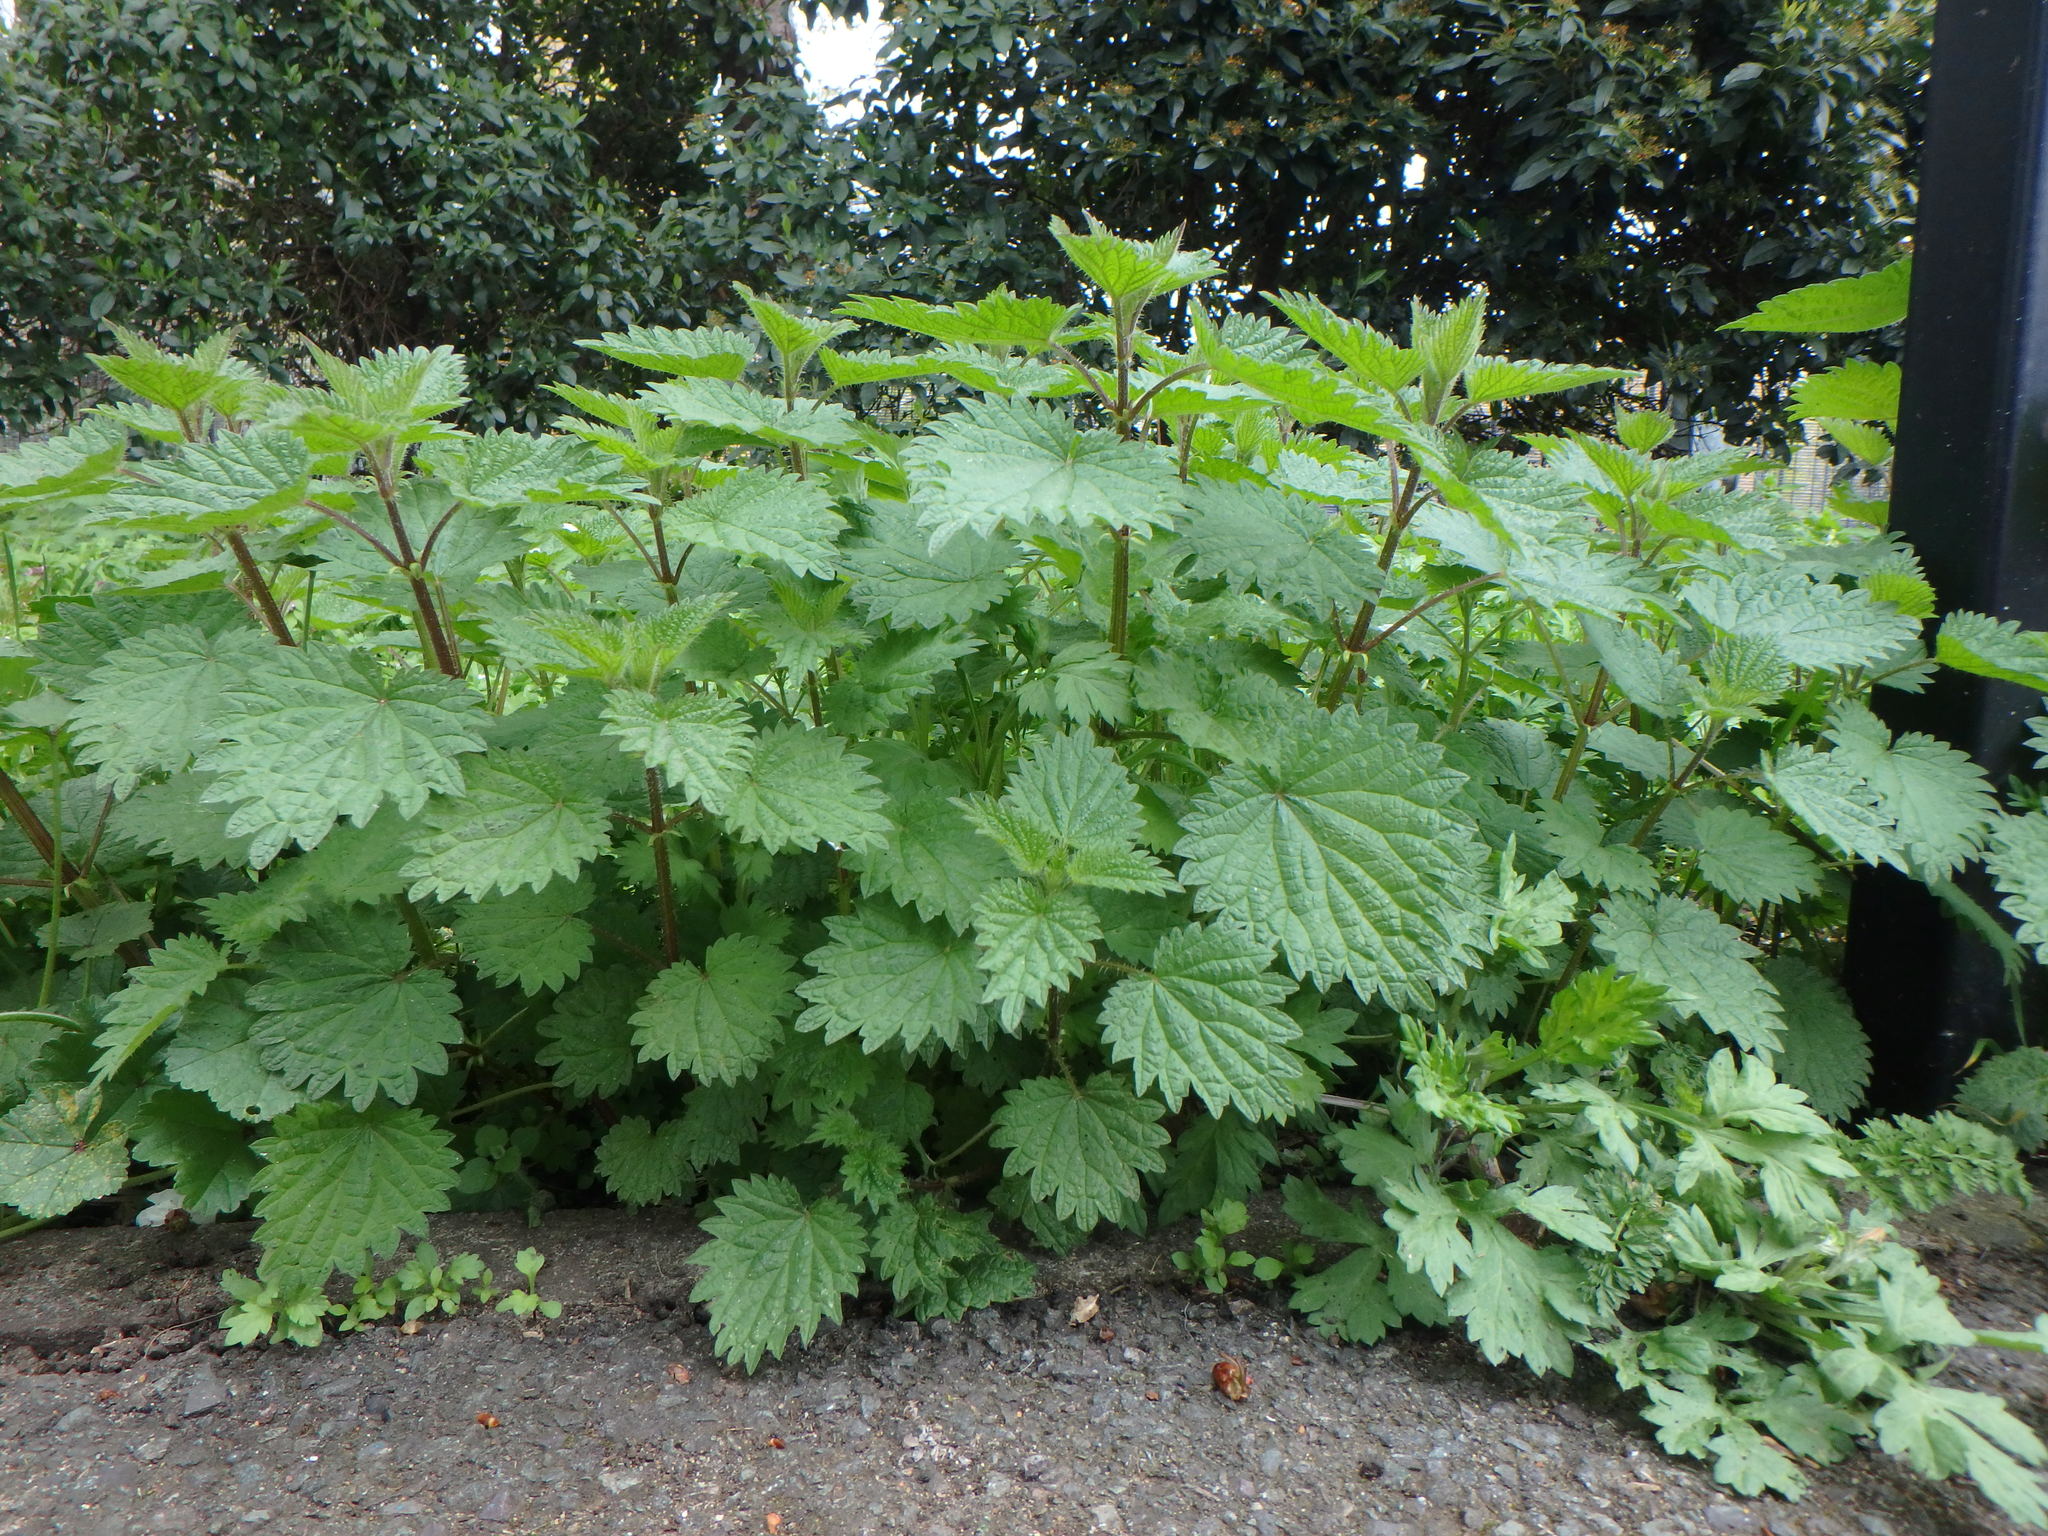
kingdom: Plantae
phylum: Tracheophyta
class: Magnoliopsida
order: Rosales
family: Urticaceae
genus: Urtica
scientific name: Urtica dioica
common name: Common nettle
